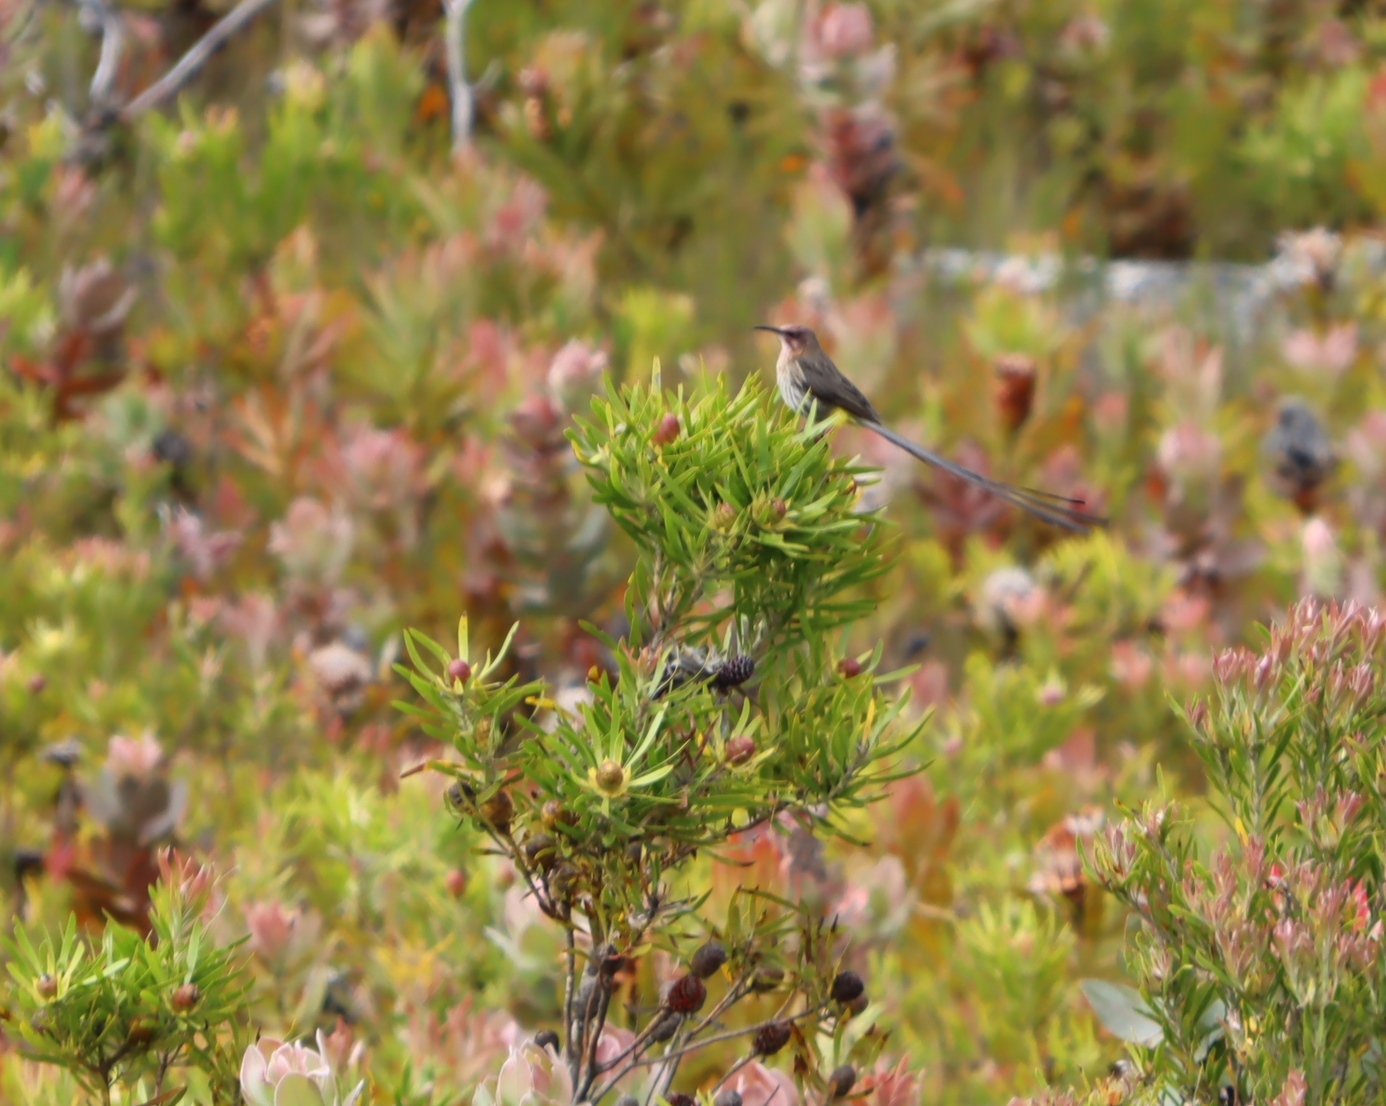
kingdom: Animalia
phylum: Chordata
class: Aves
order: Passeriformes
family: Promeropidae
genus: Promerops
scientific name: Promerops cafer
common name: Cape sugarbird
